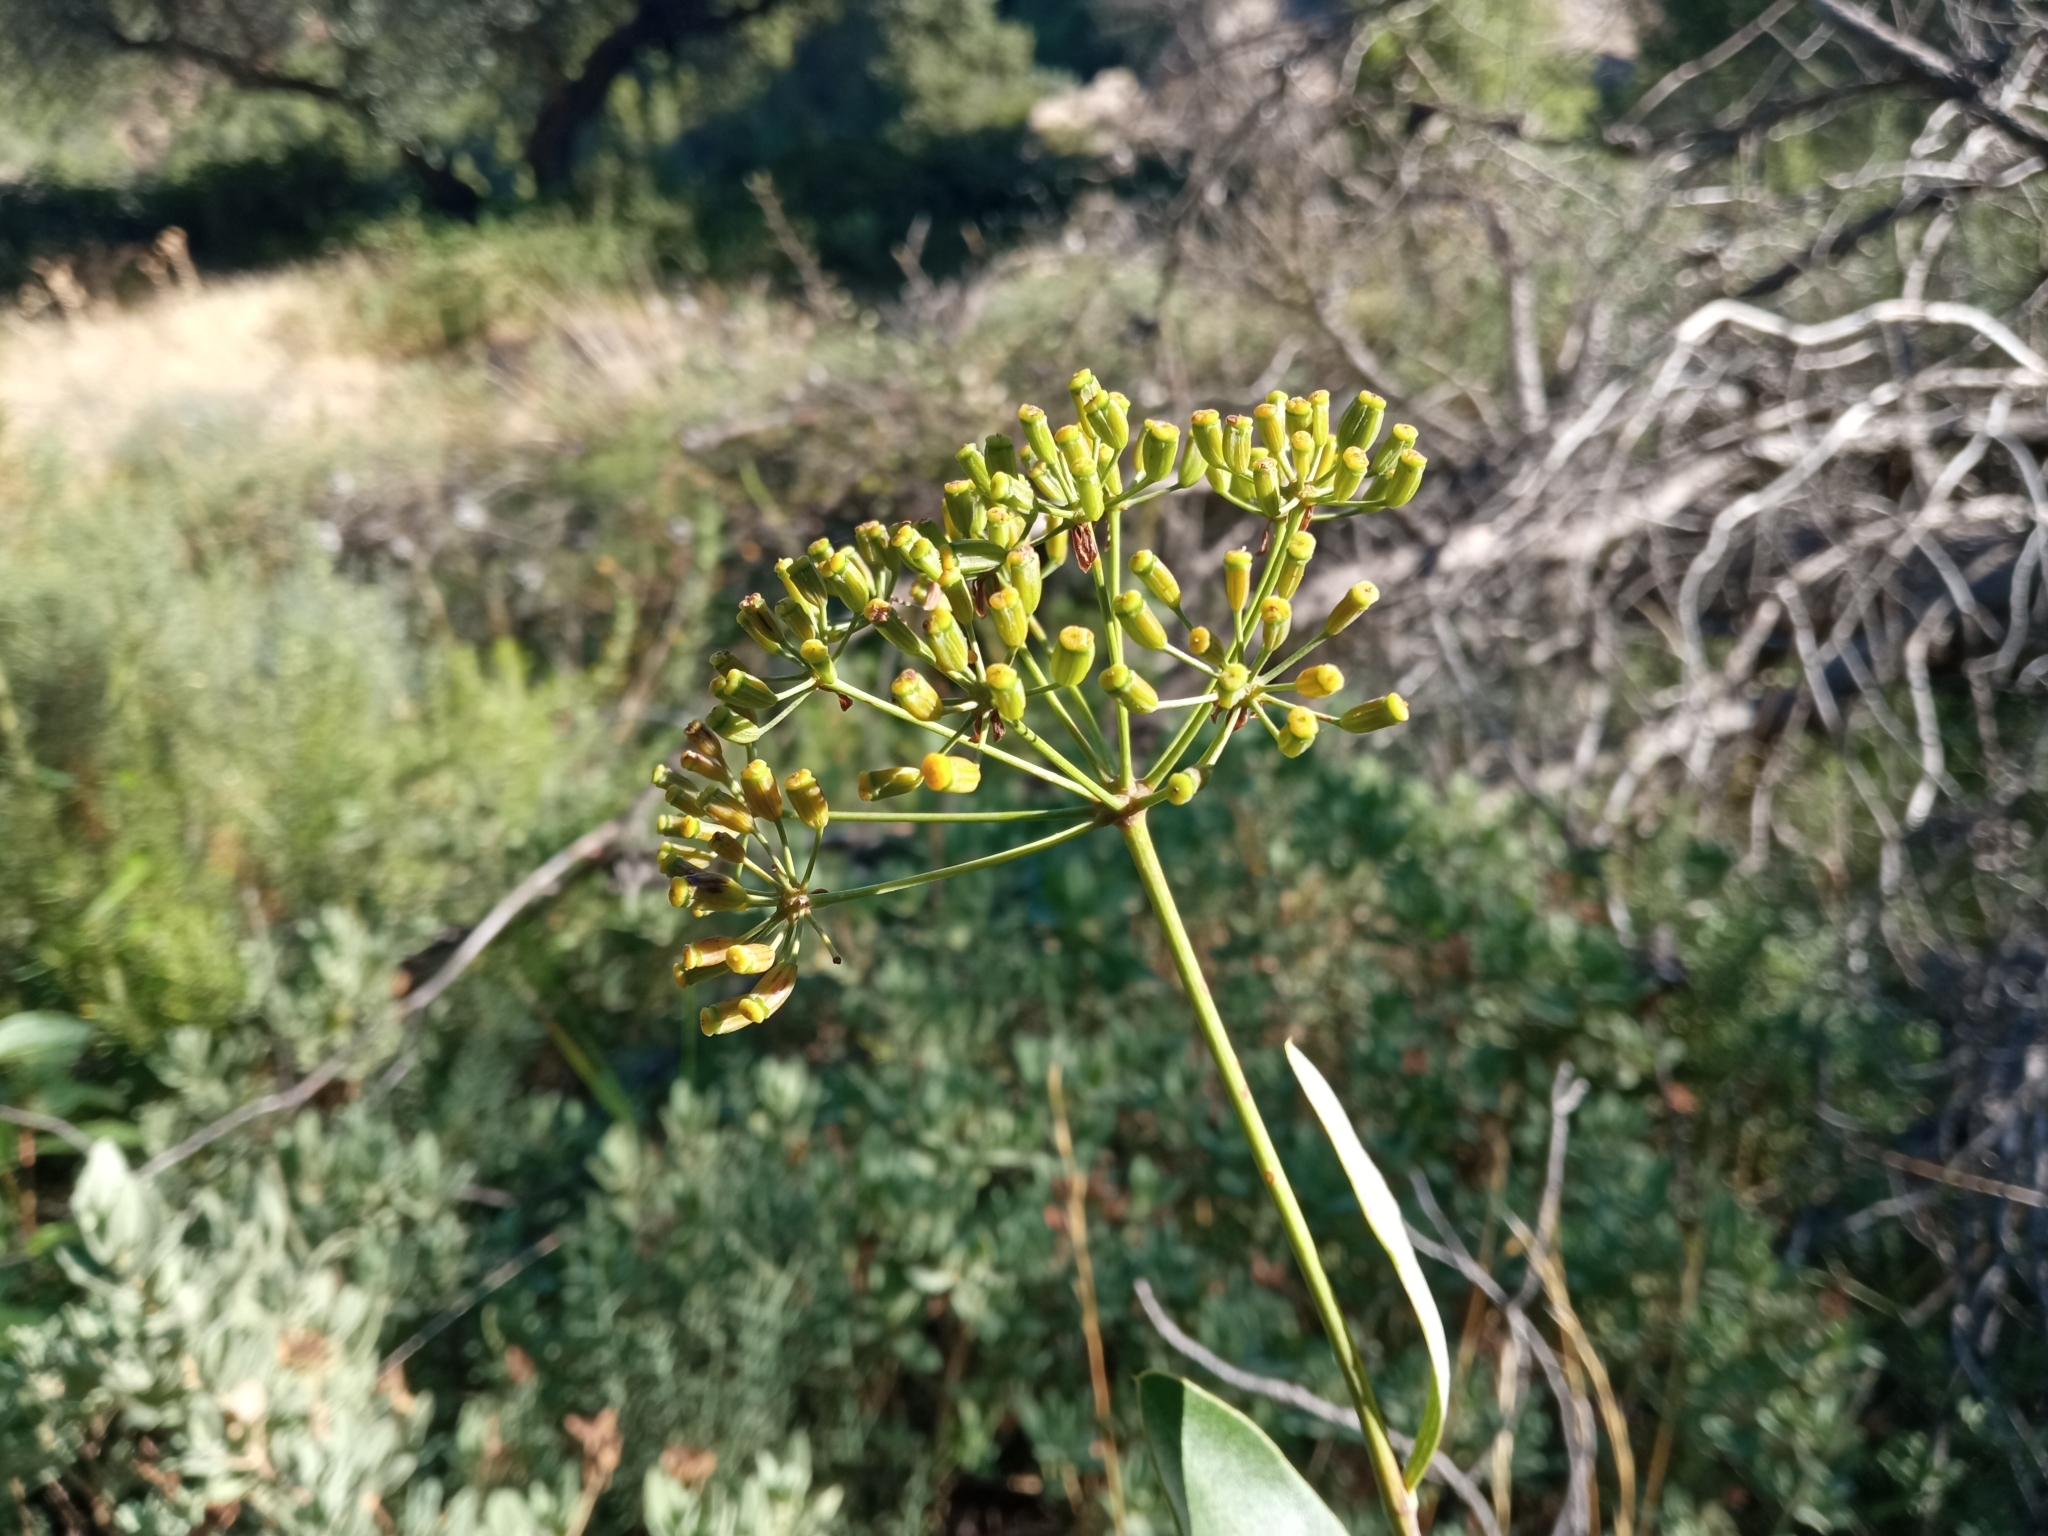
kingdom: Plantae
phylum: Tracheophyta
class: Magnoliopsida
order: Apiales
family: Apiaceae
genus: Bupleurum
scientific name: Bupleurum fruticosum
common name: Shrubby hare's-ear
